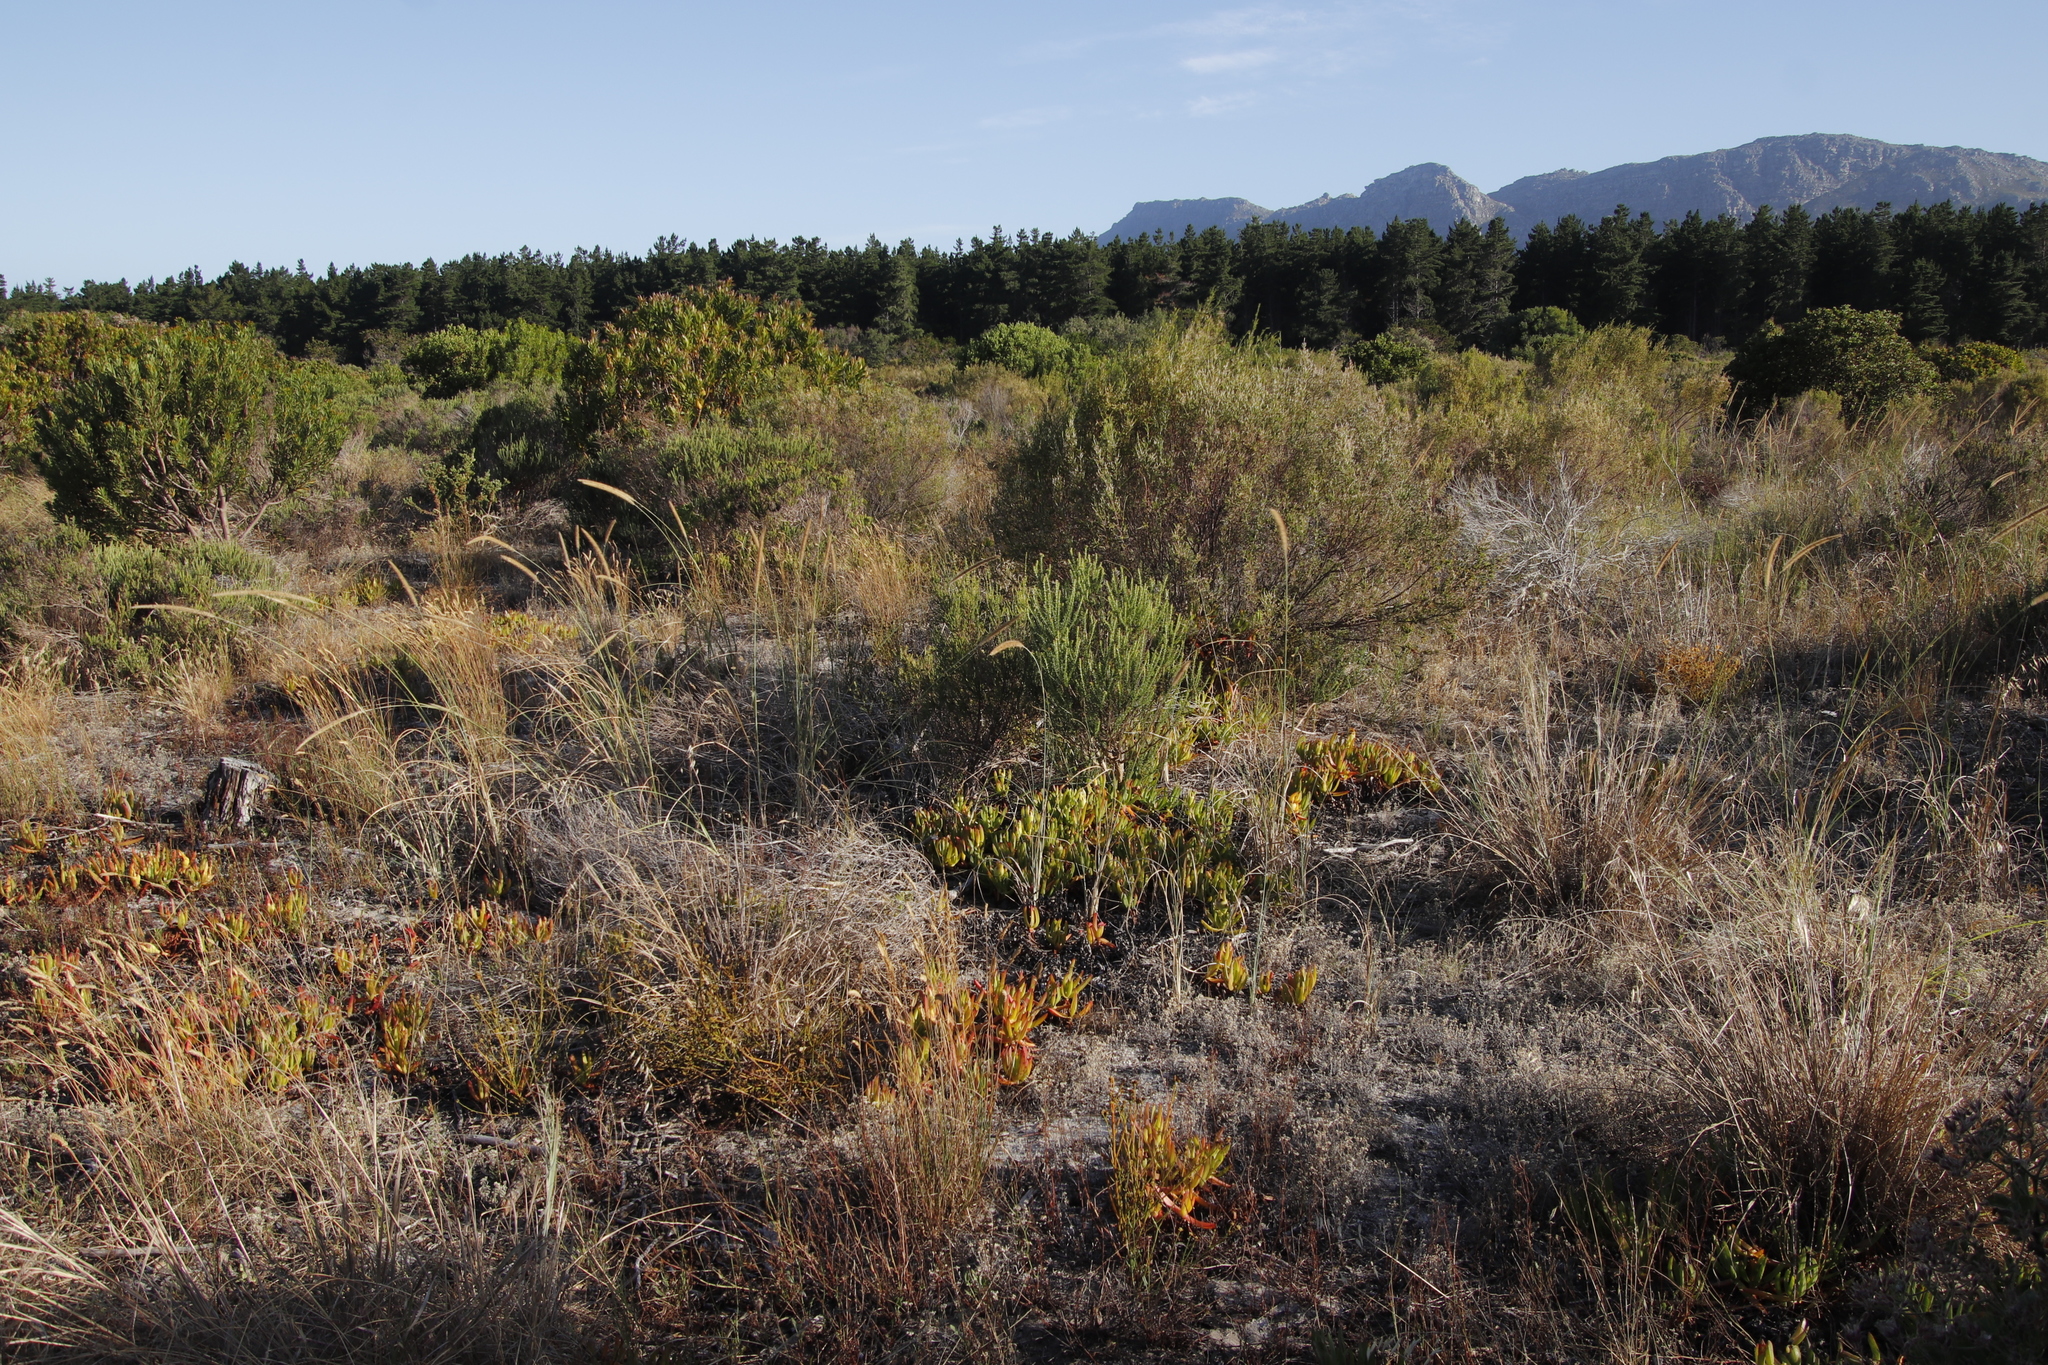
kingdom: Plantae
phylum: Tracheophyta
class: Magnoliopsida
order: Caryophyllales
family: Aizoaceae
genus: Carpobrotus
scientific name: Carpobrotus edulis
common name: Hottentot-fig
